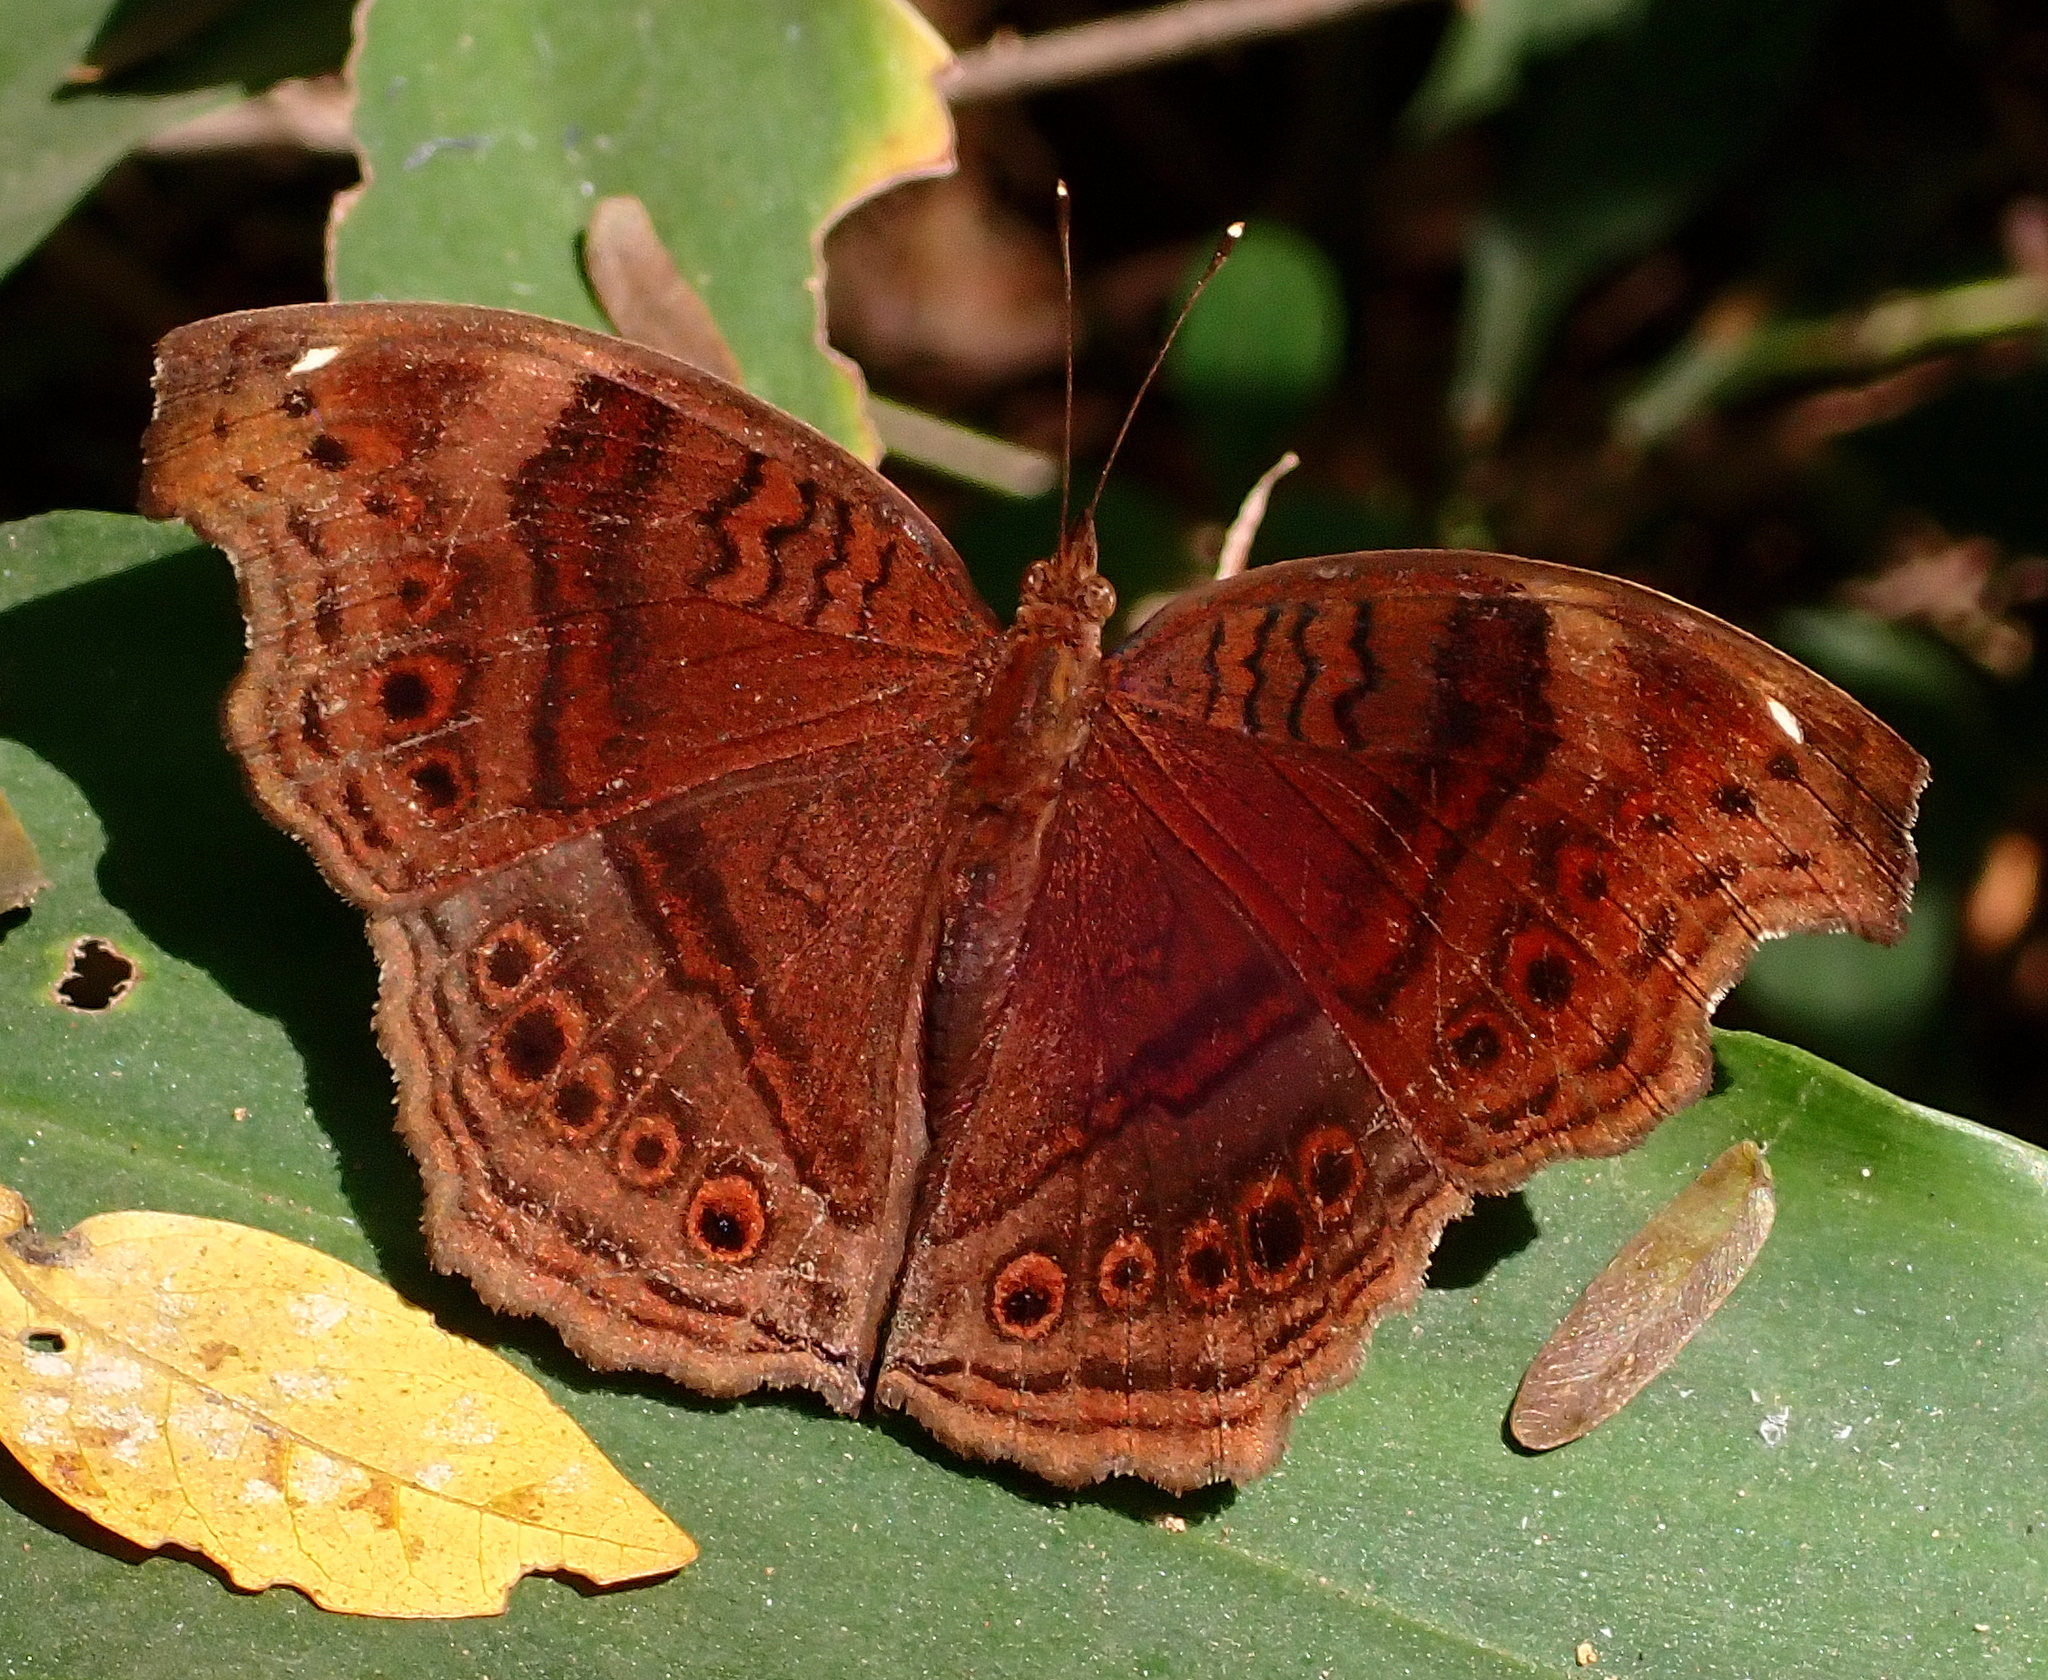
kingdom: Animalia
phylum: Arthropoda
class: Insecta
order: Lepidoptera
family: Nymphalidae
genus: Junonia
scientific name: Junonia stygia
